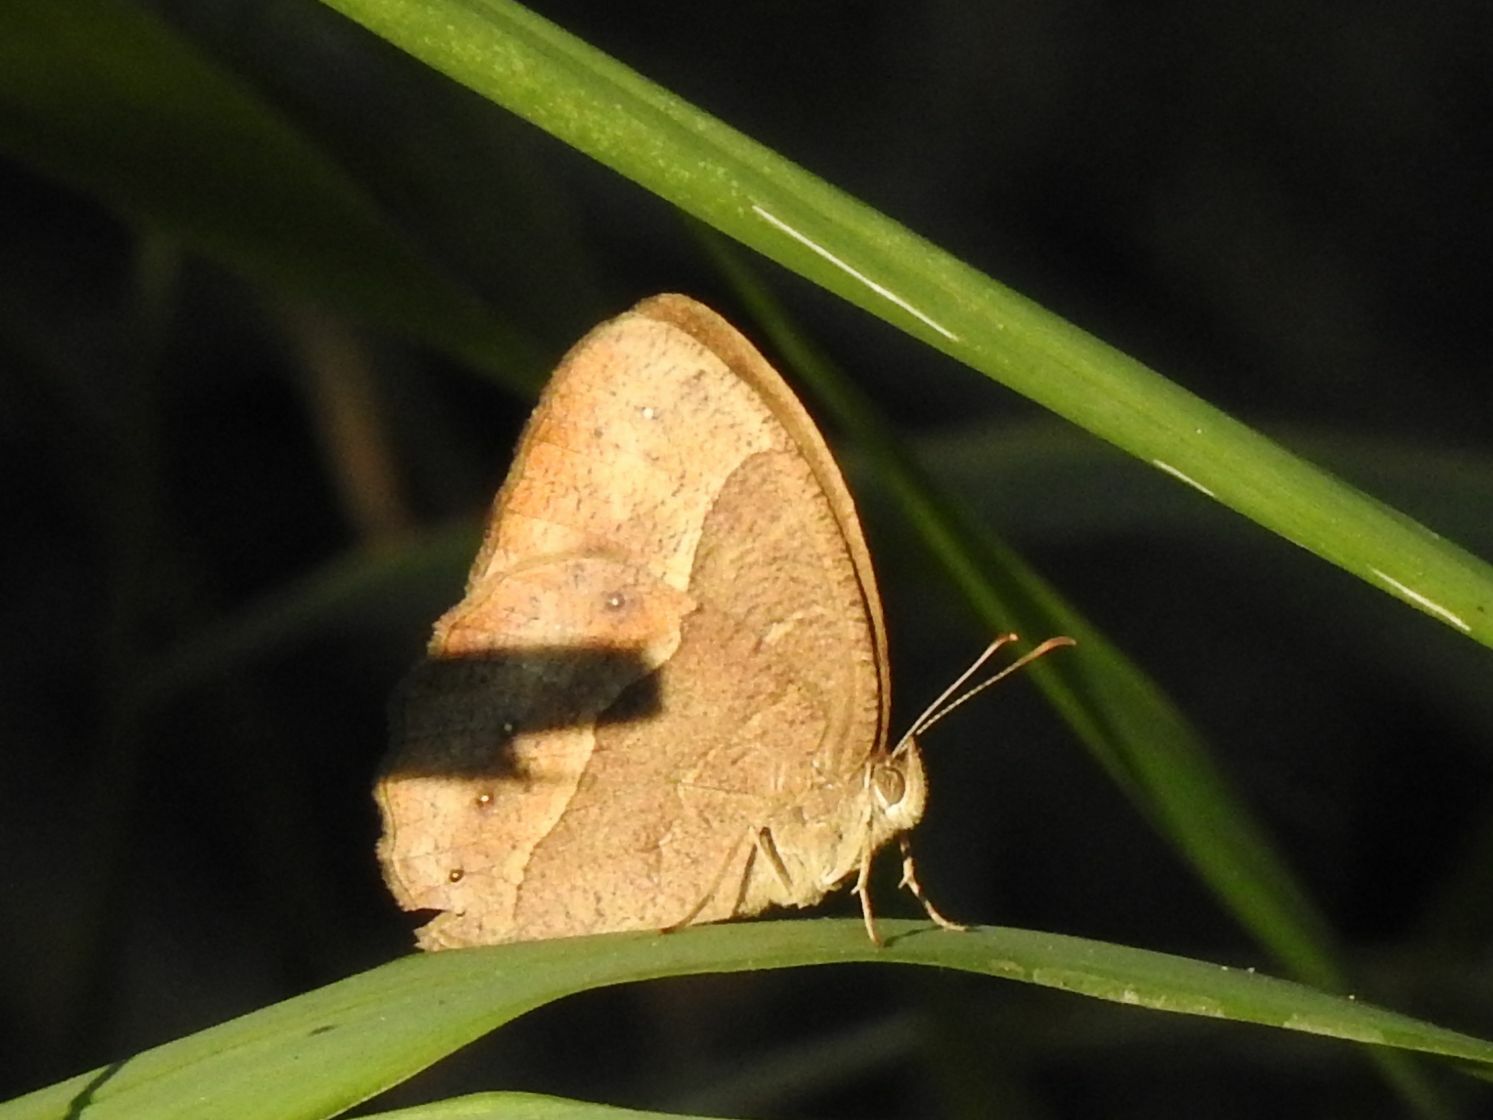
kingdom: Animalia
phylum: Arthropoda
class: Insecta
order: Lepidoptera
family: Nymphalidae
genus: Mycalesis
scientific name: Mycalesis anynana
